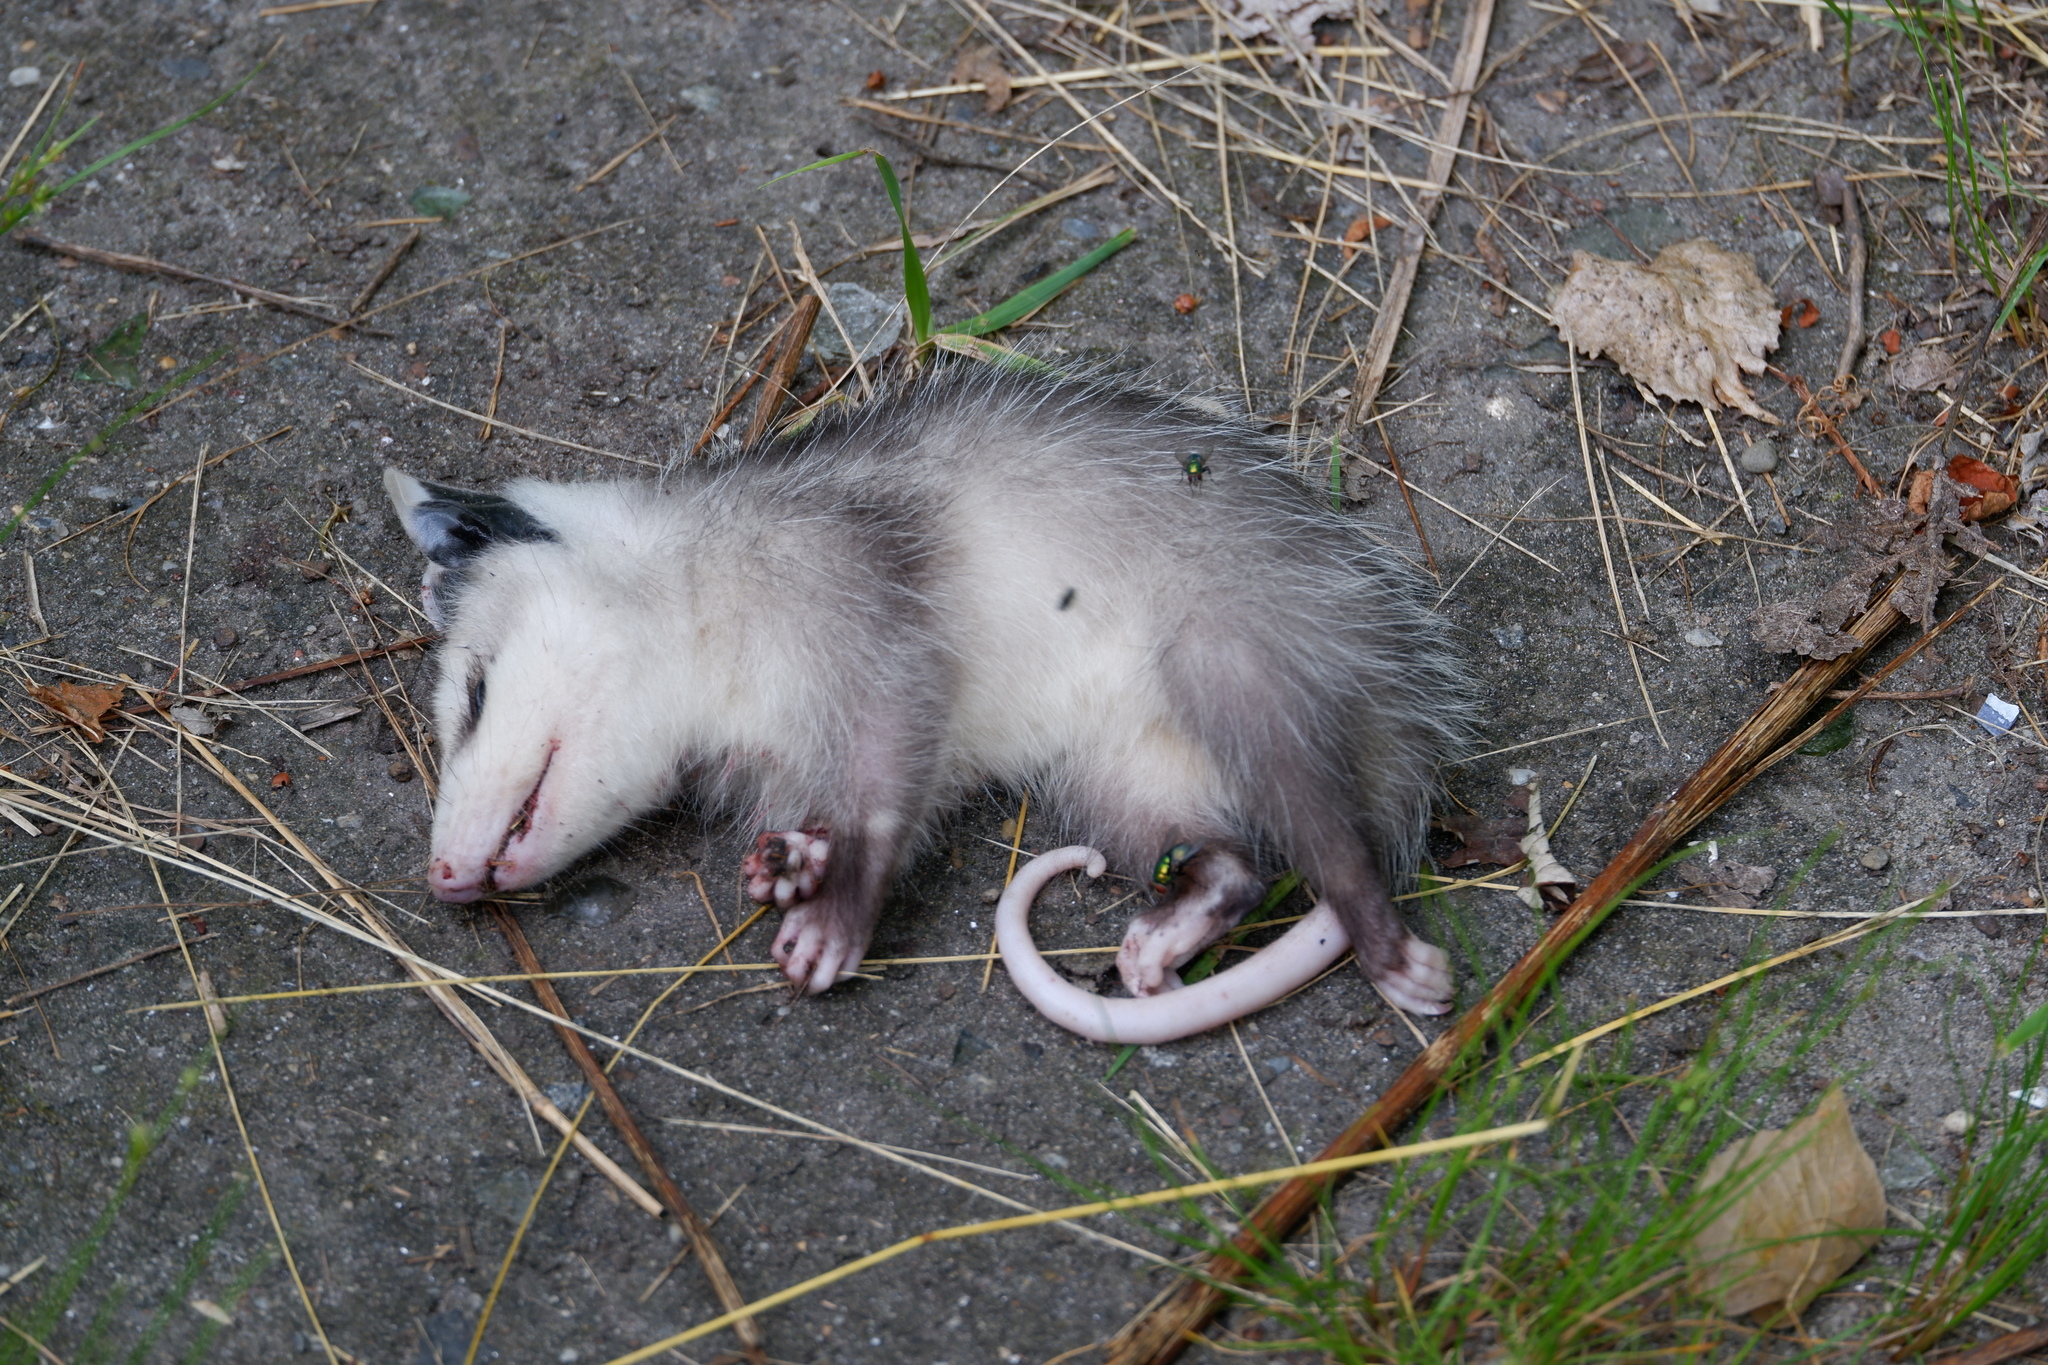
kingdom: Animalia
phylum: Chordata
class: Mammalia
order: Didelphimorphia
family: Didelphidae
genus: Didelphis
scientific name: Didelphis virginiana
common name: Virginia opossum
